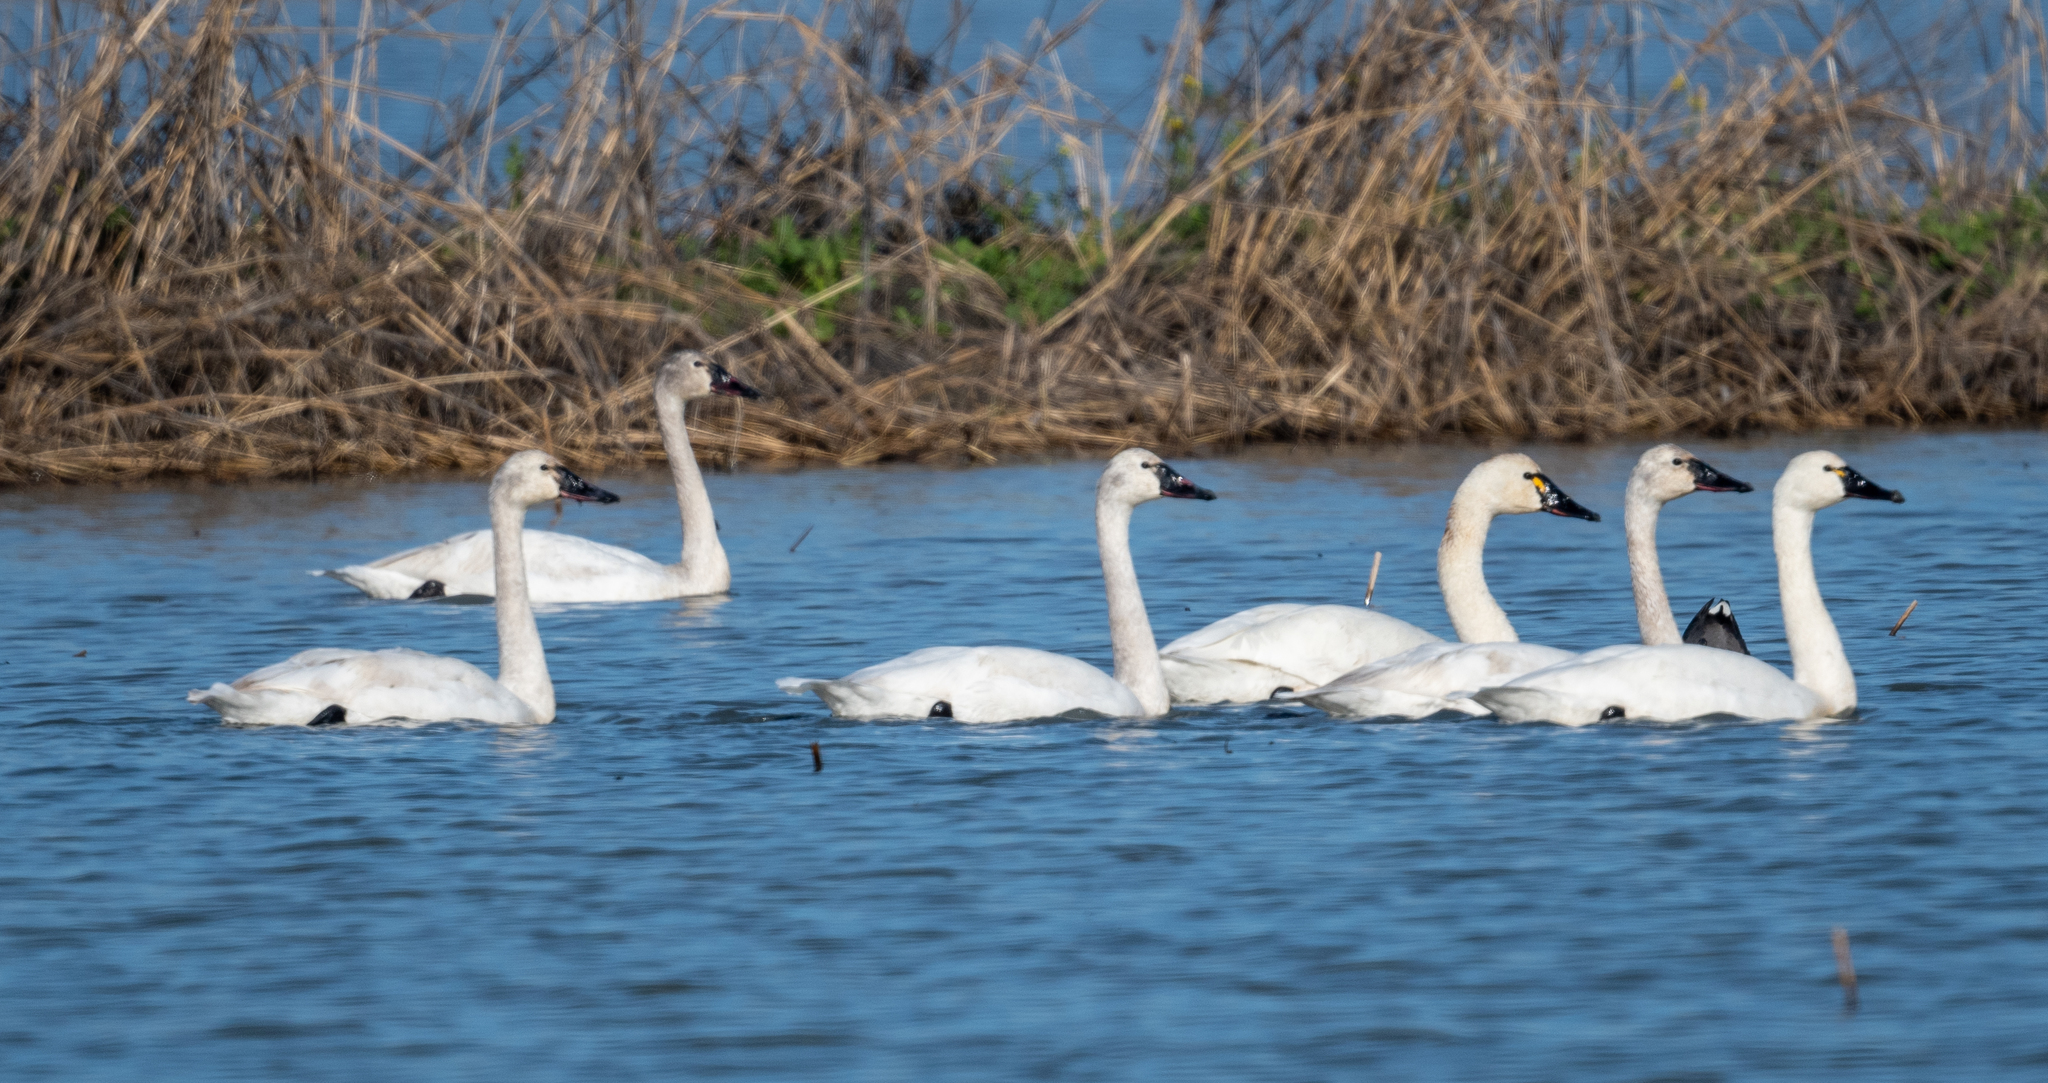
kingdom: Animalia
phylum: Chordata
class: Aves
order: Anseriformes
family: Anatidae
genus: Cygnus
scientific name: Cygnus columbianus
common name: Tundra swan
